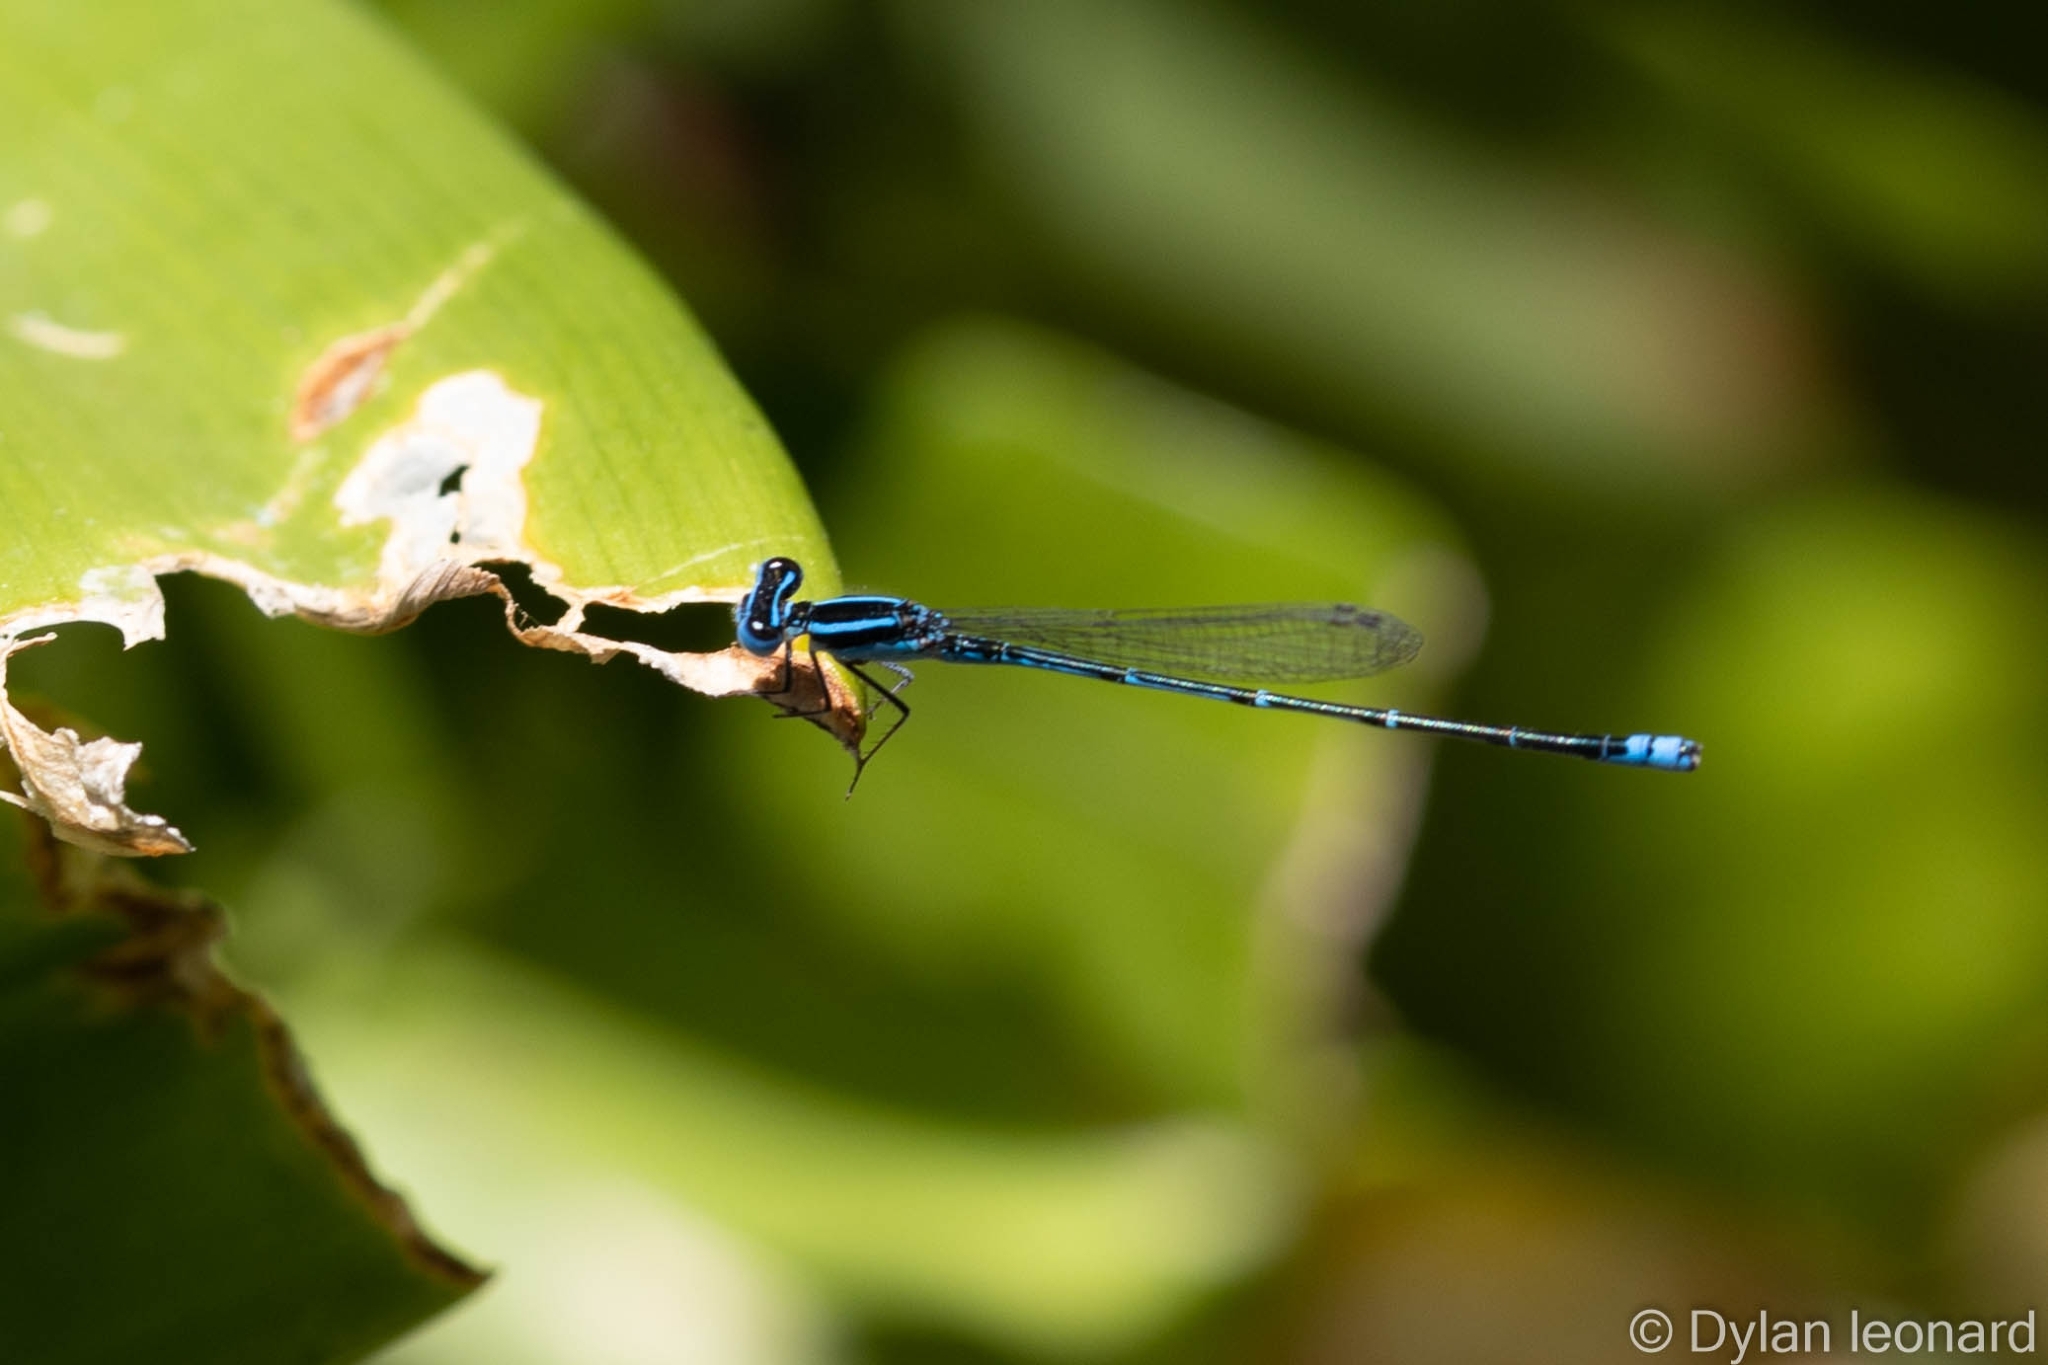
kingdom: Animalia
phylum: Arthropoda
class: Insecta
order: Odonata
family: Coenagrionidae
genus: Azuragrion
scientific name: Azuragrion nigridorsum
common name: Sailing azuret
